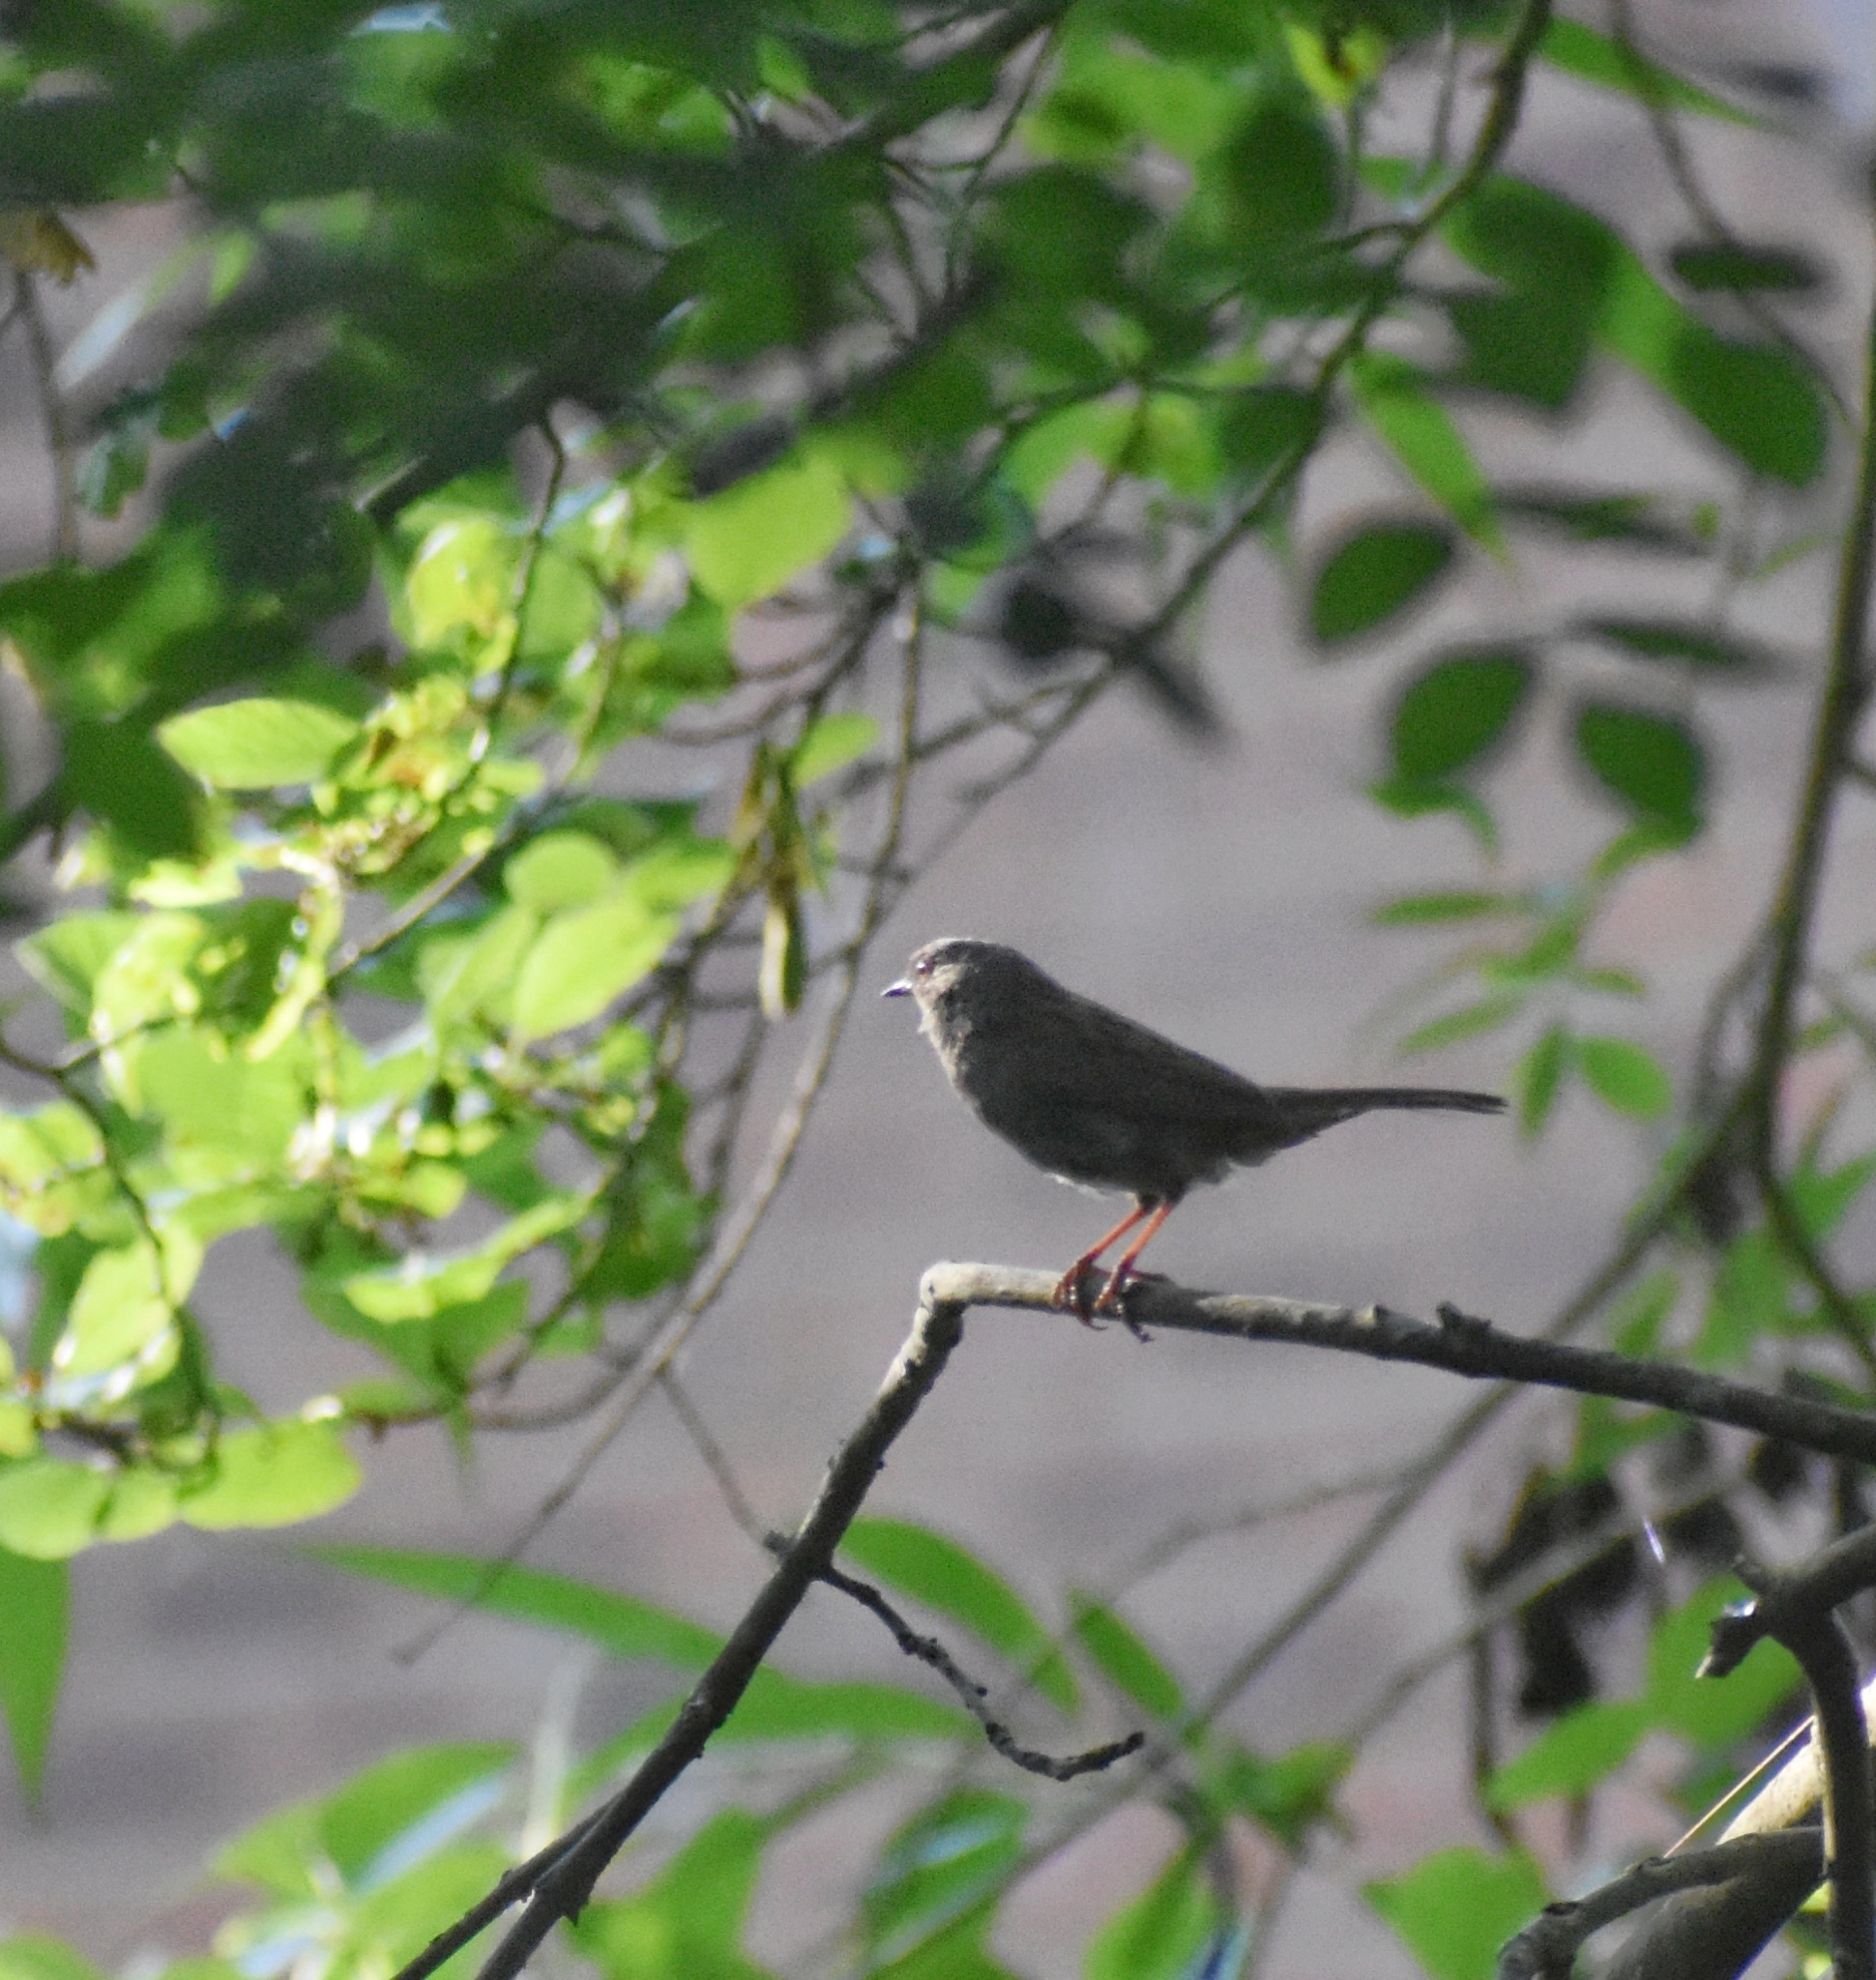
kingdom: Animalia
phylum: Chordata
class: Aves
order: Passeriformes
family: Prunellidae
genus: Prunella
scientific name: Prunella modularis
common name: Dunnock
